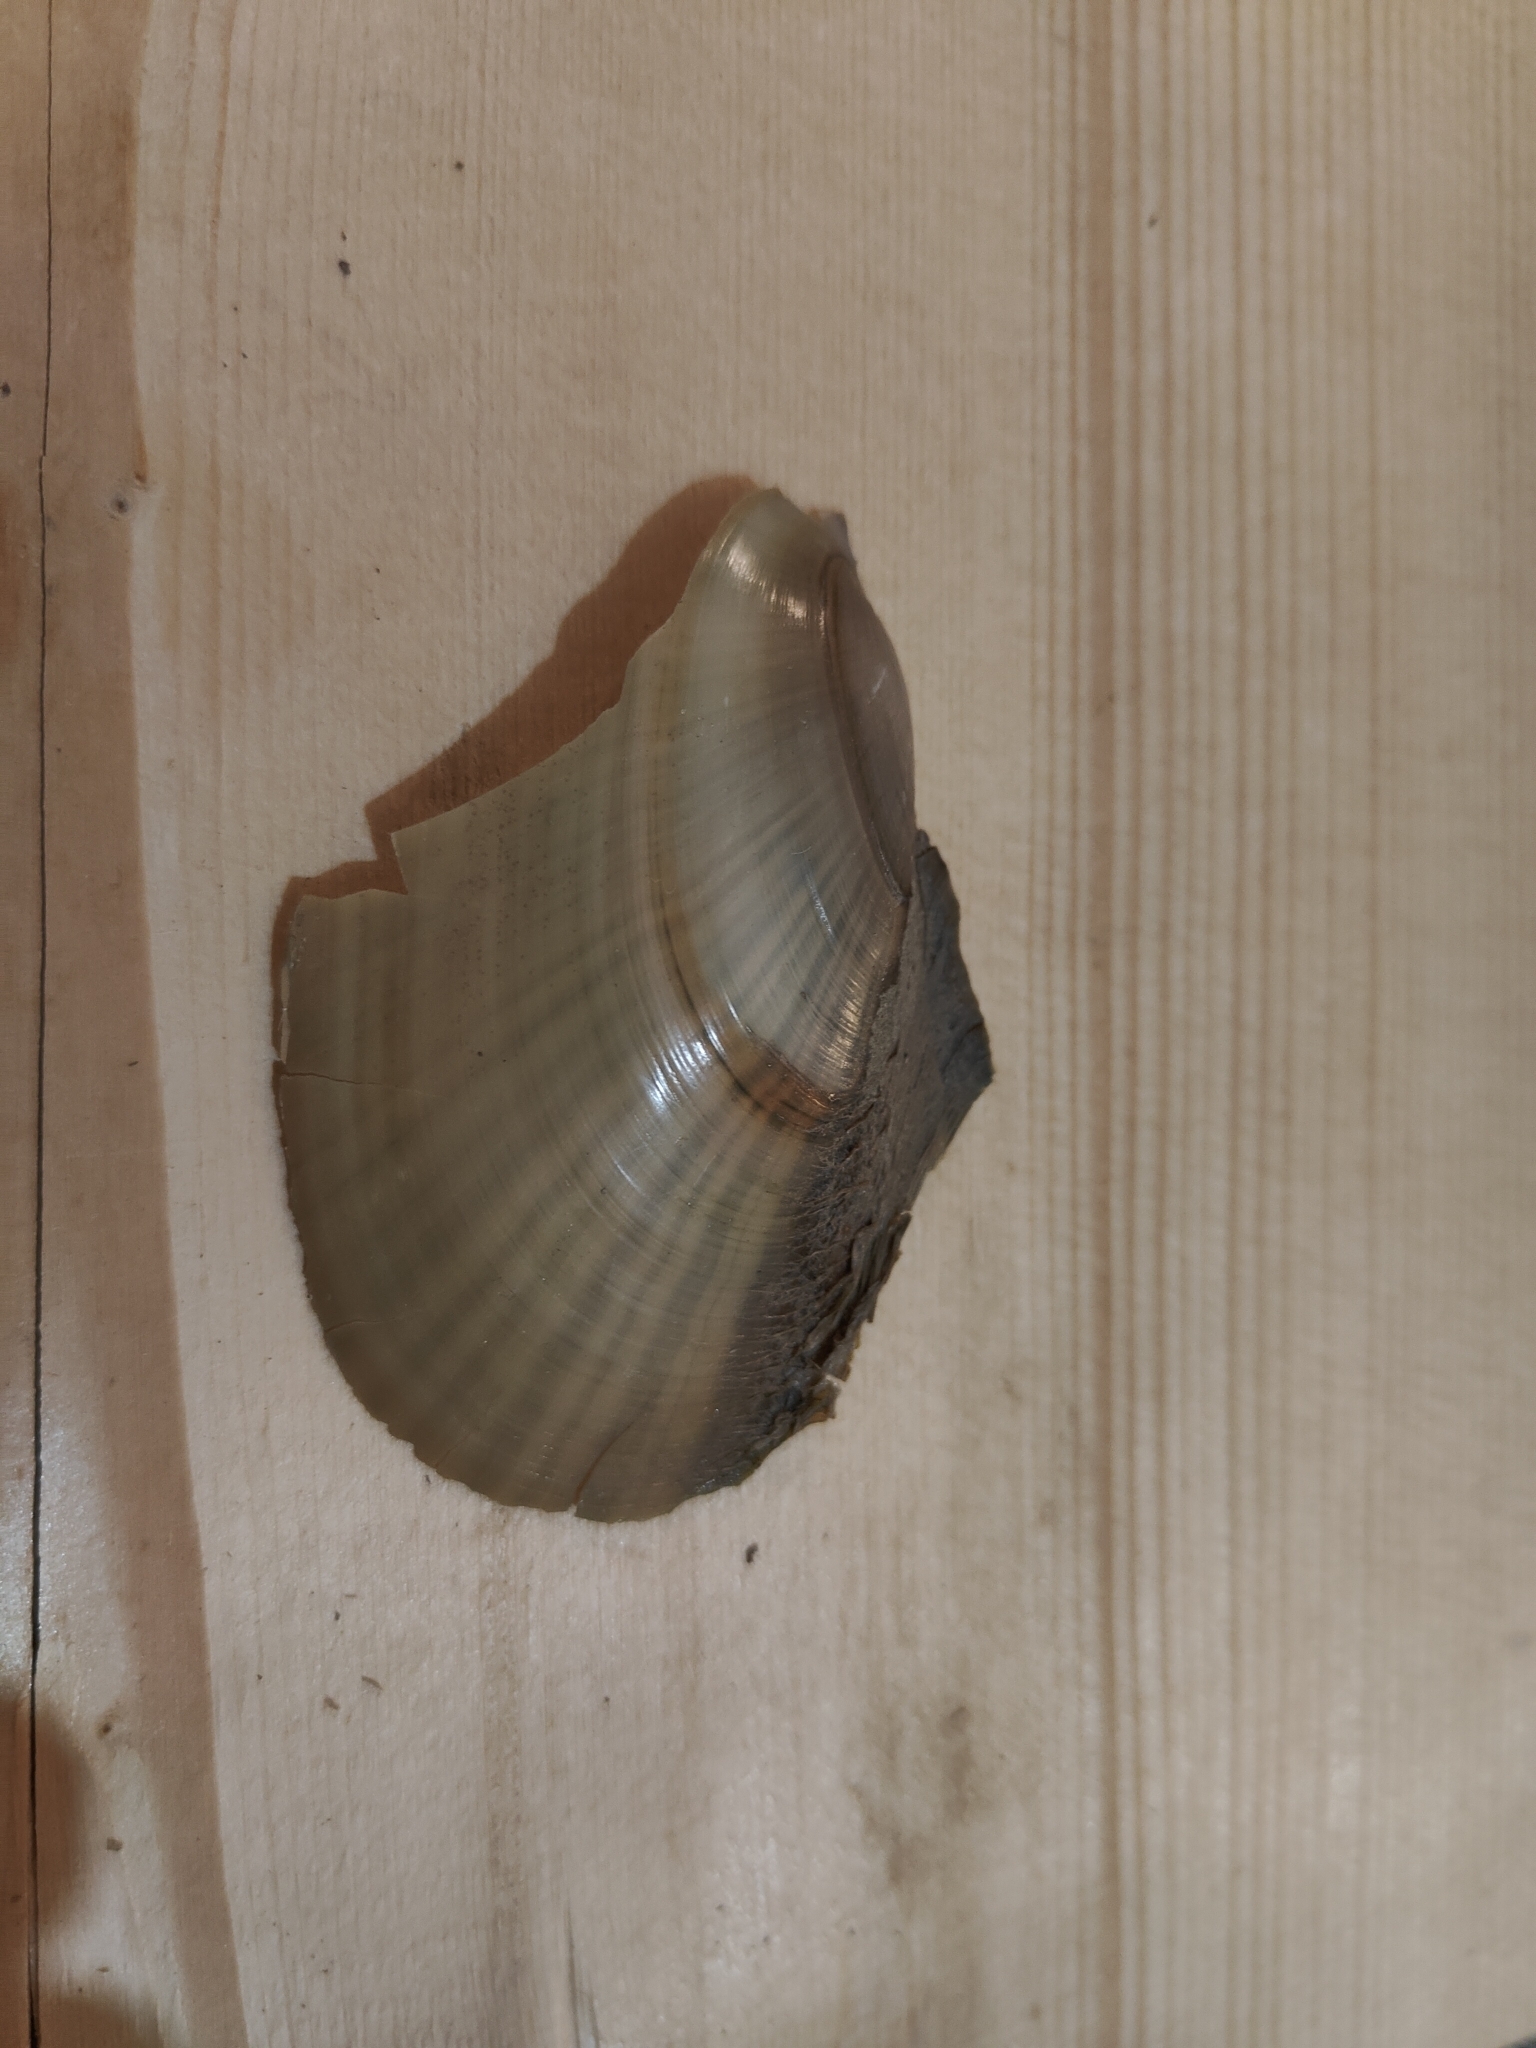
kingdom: Animalia
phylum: Mollusca
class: Bivalvia
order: Unionida
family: Unionidae
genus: Potamilus
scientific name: Potamilus fragilis
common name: Fragile papershell
